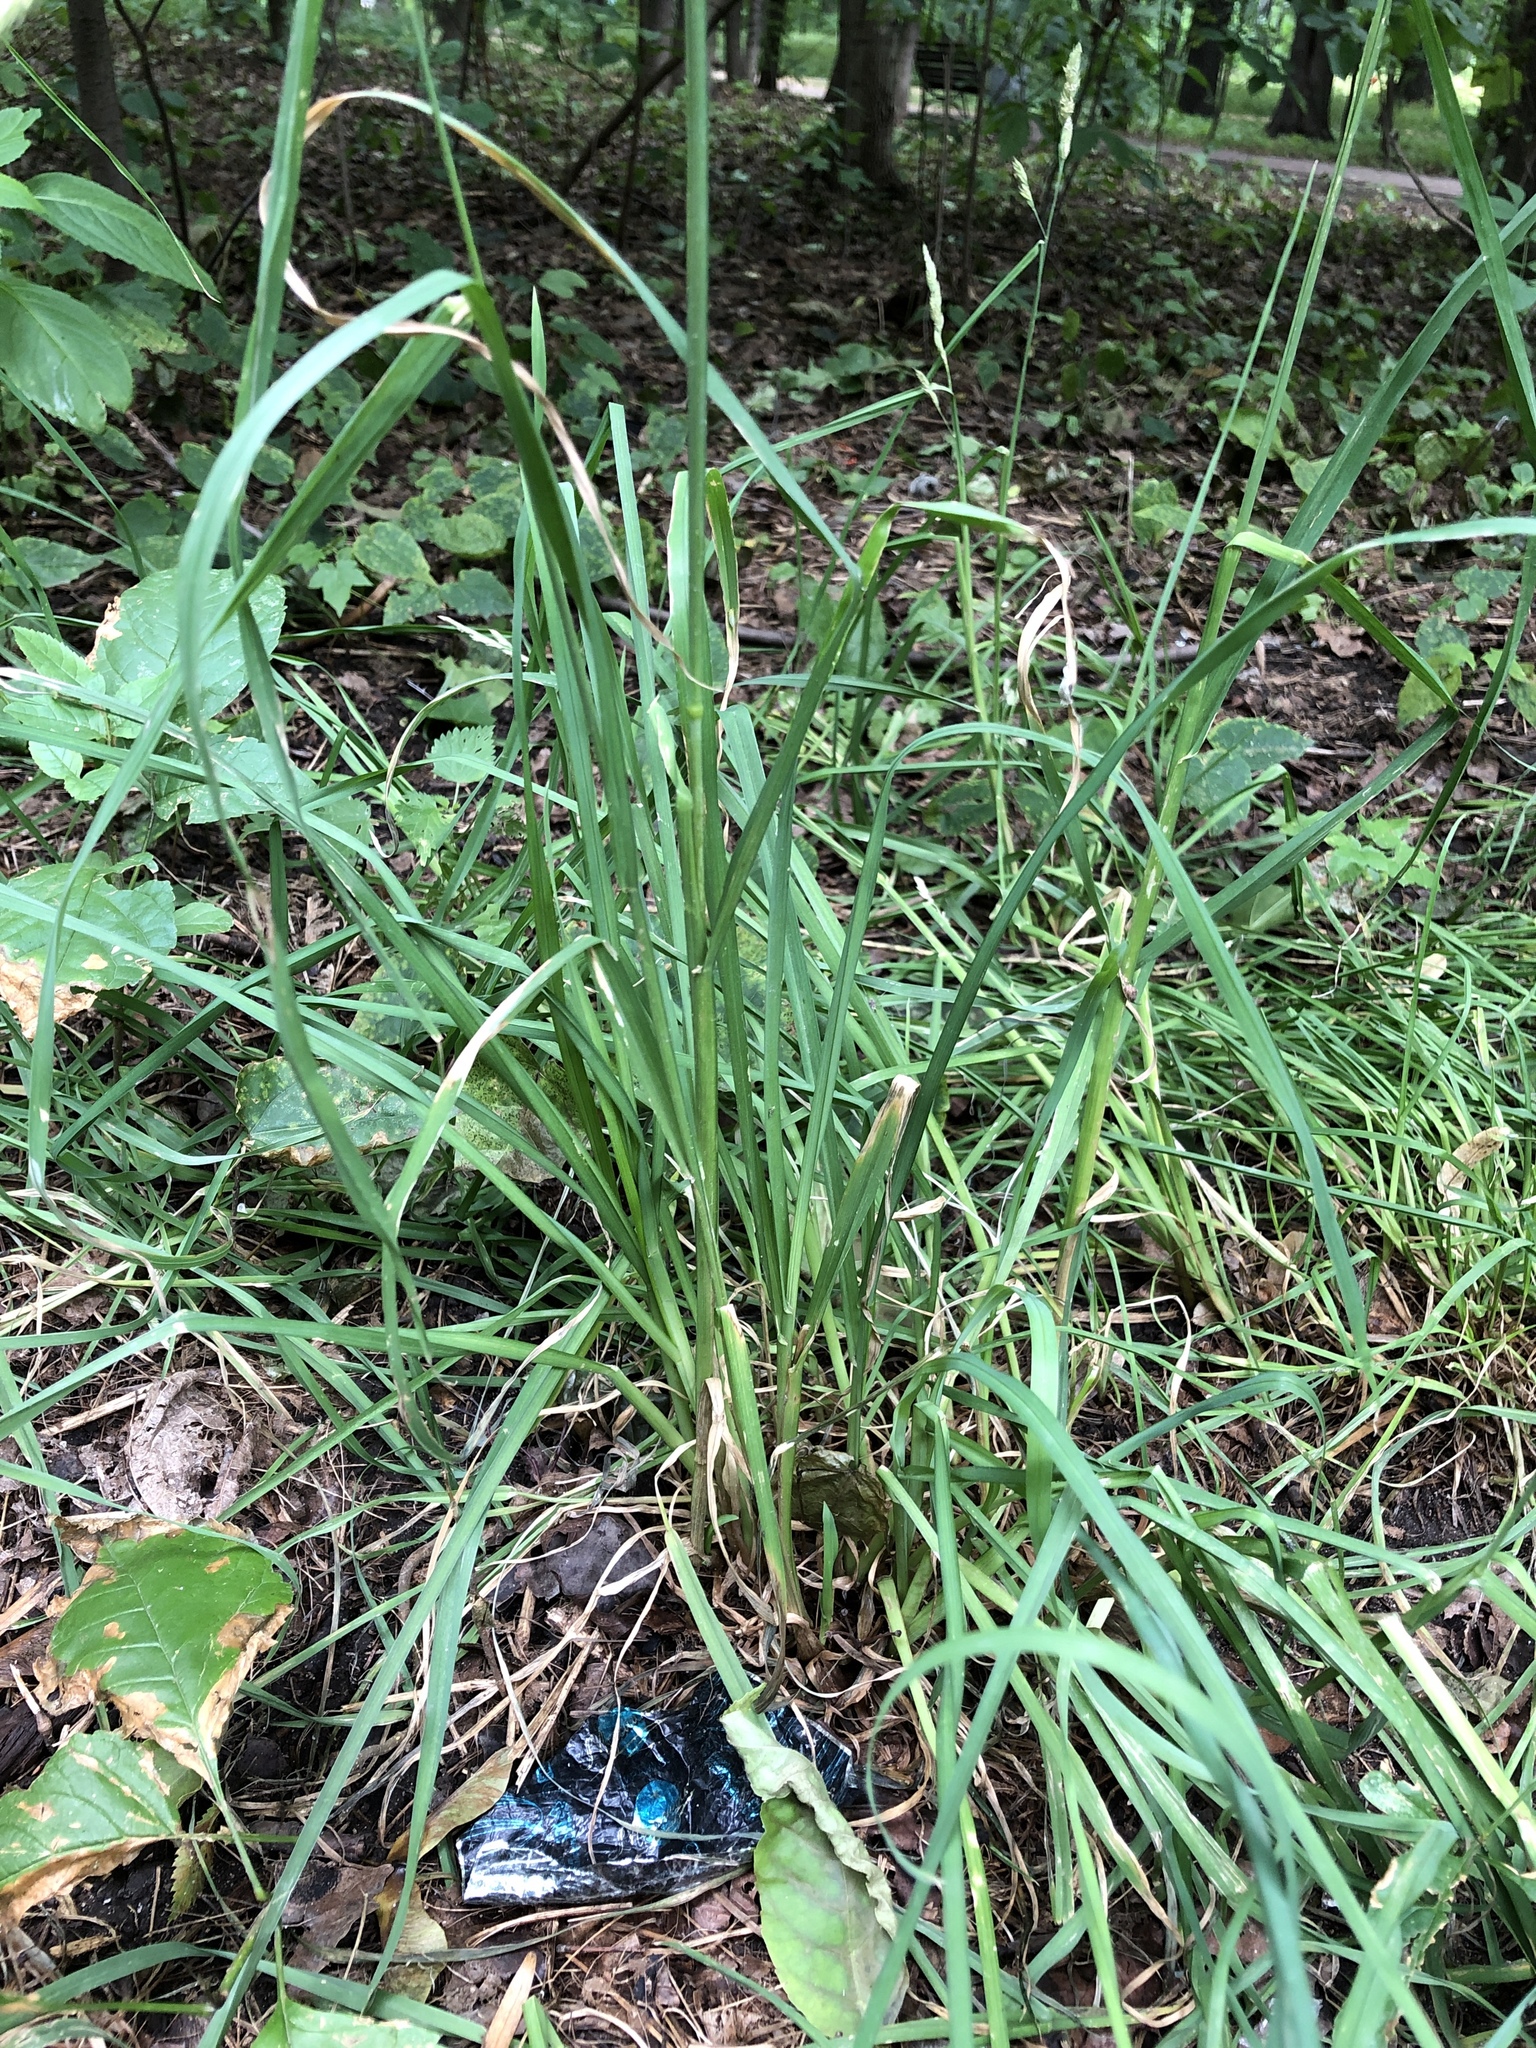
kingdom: Plantae
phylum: Tracheophyta
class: Liliopsida
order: Poales
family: Poaceae
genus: Dactylis
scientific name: Dactylis glomerata
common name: Orchardgrass
